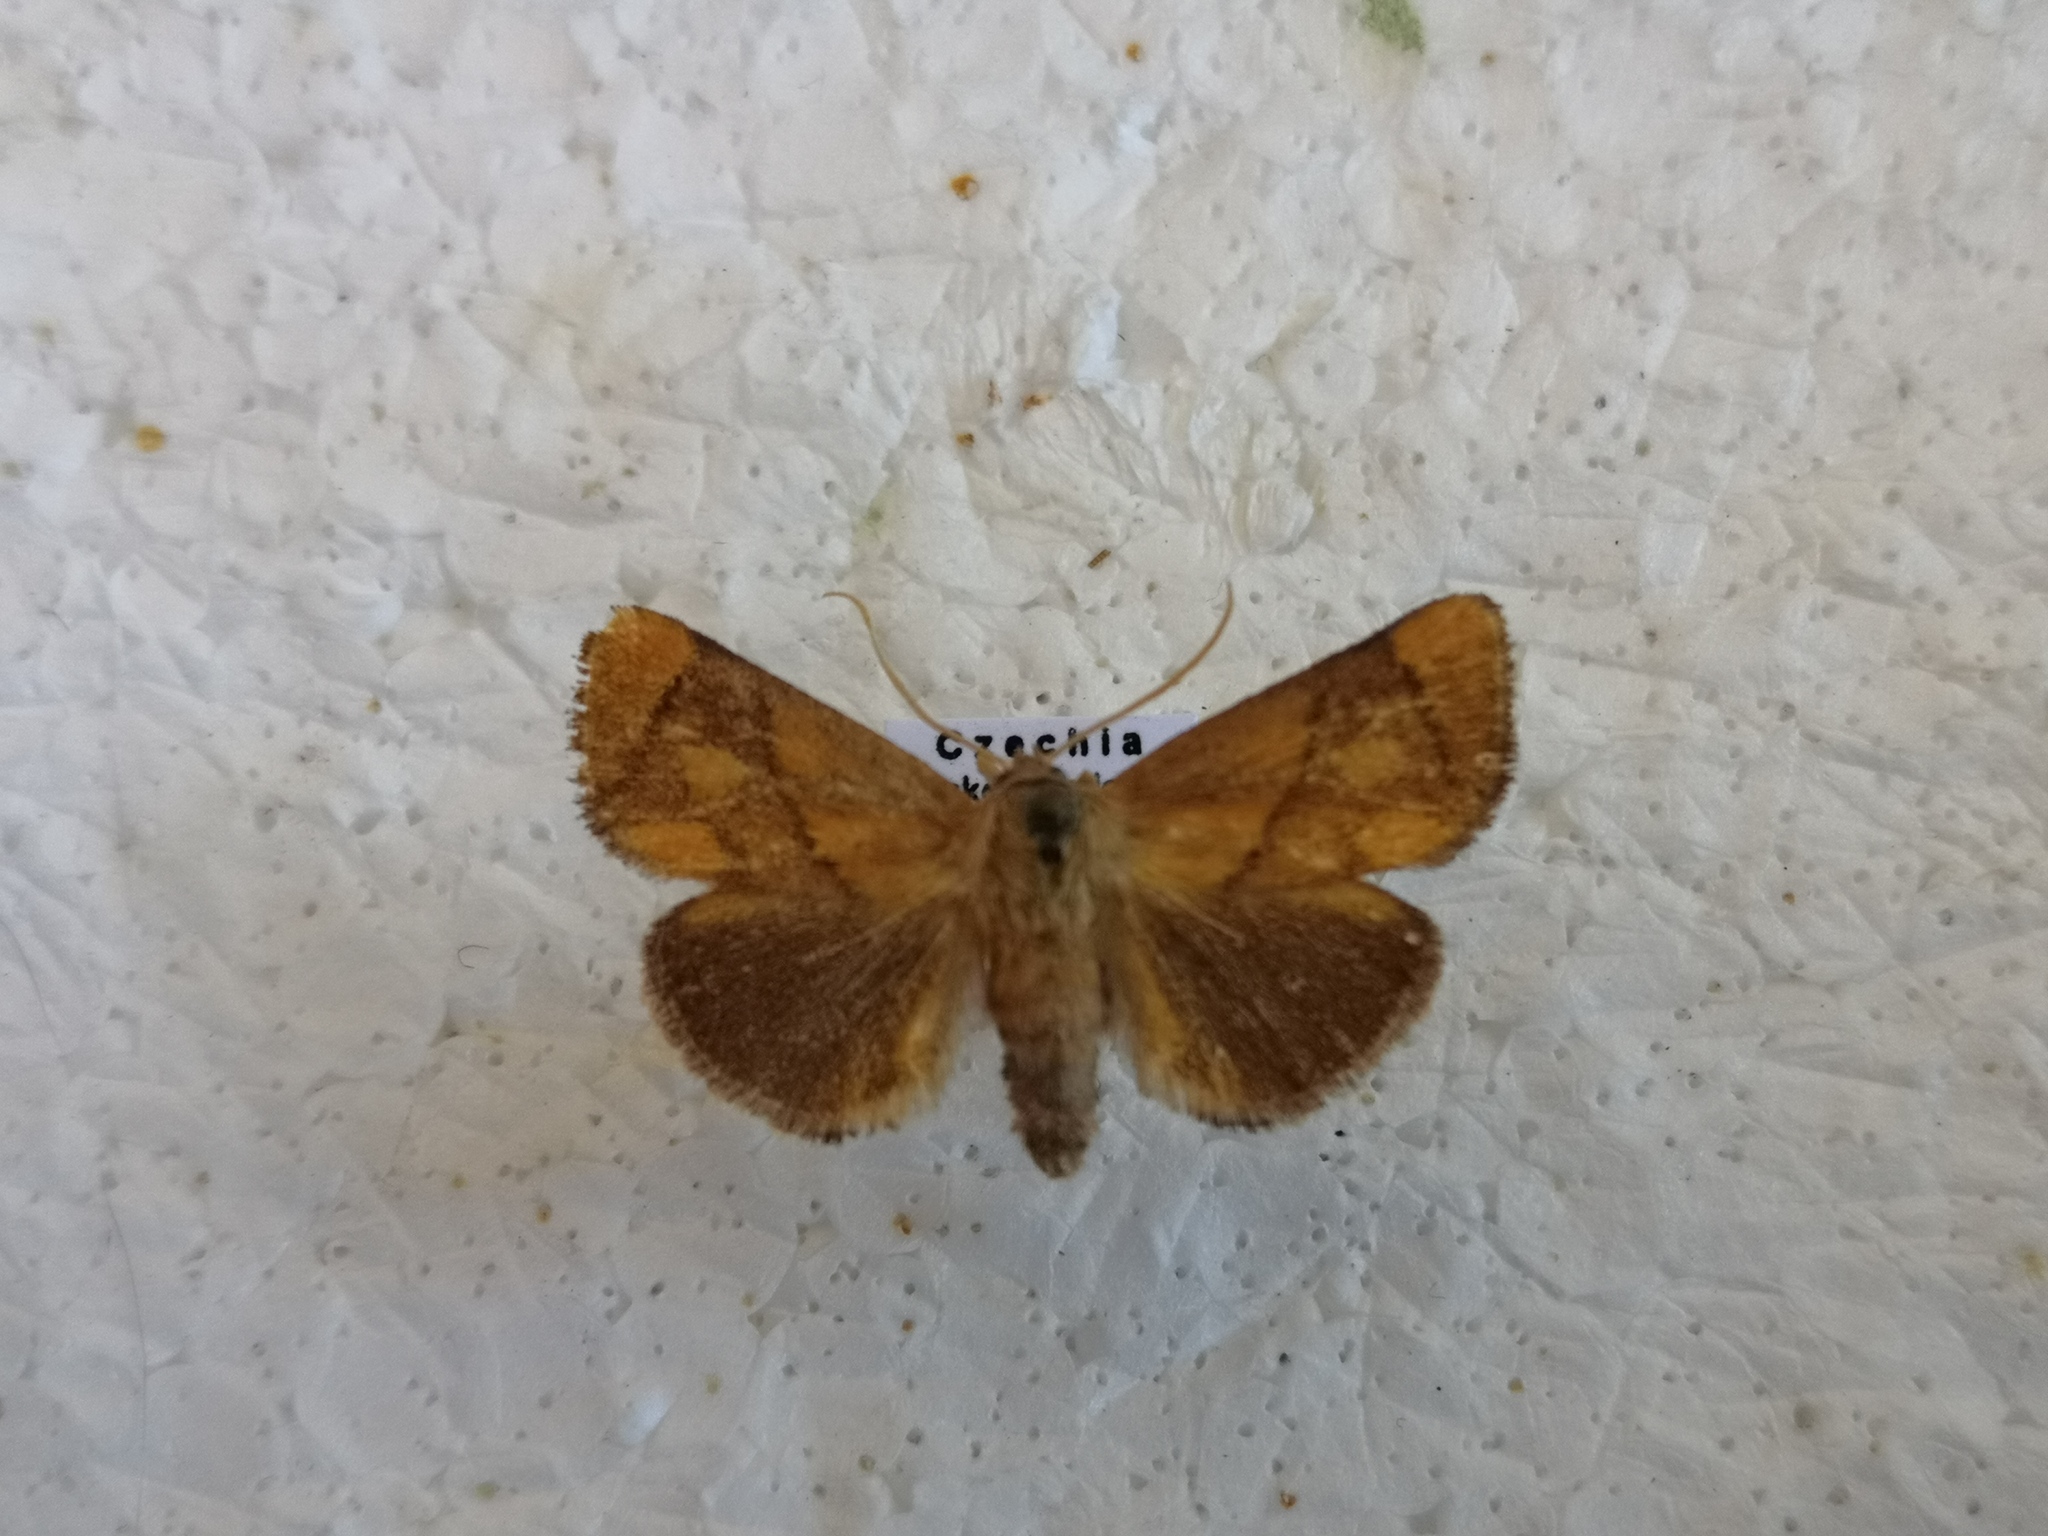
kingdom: Animalia
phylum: Arthropoda
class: Insecta
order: Lepidoptera
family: Limacodidae
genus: Apoda
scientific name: Apoda limacodes
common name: Festoon
